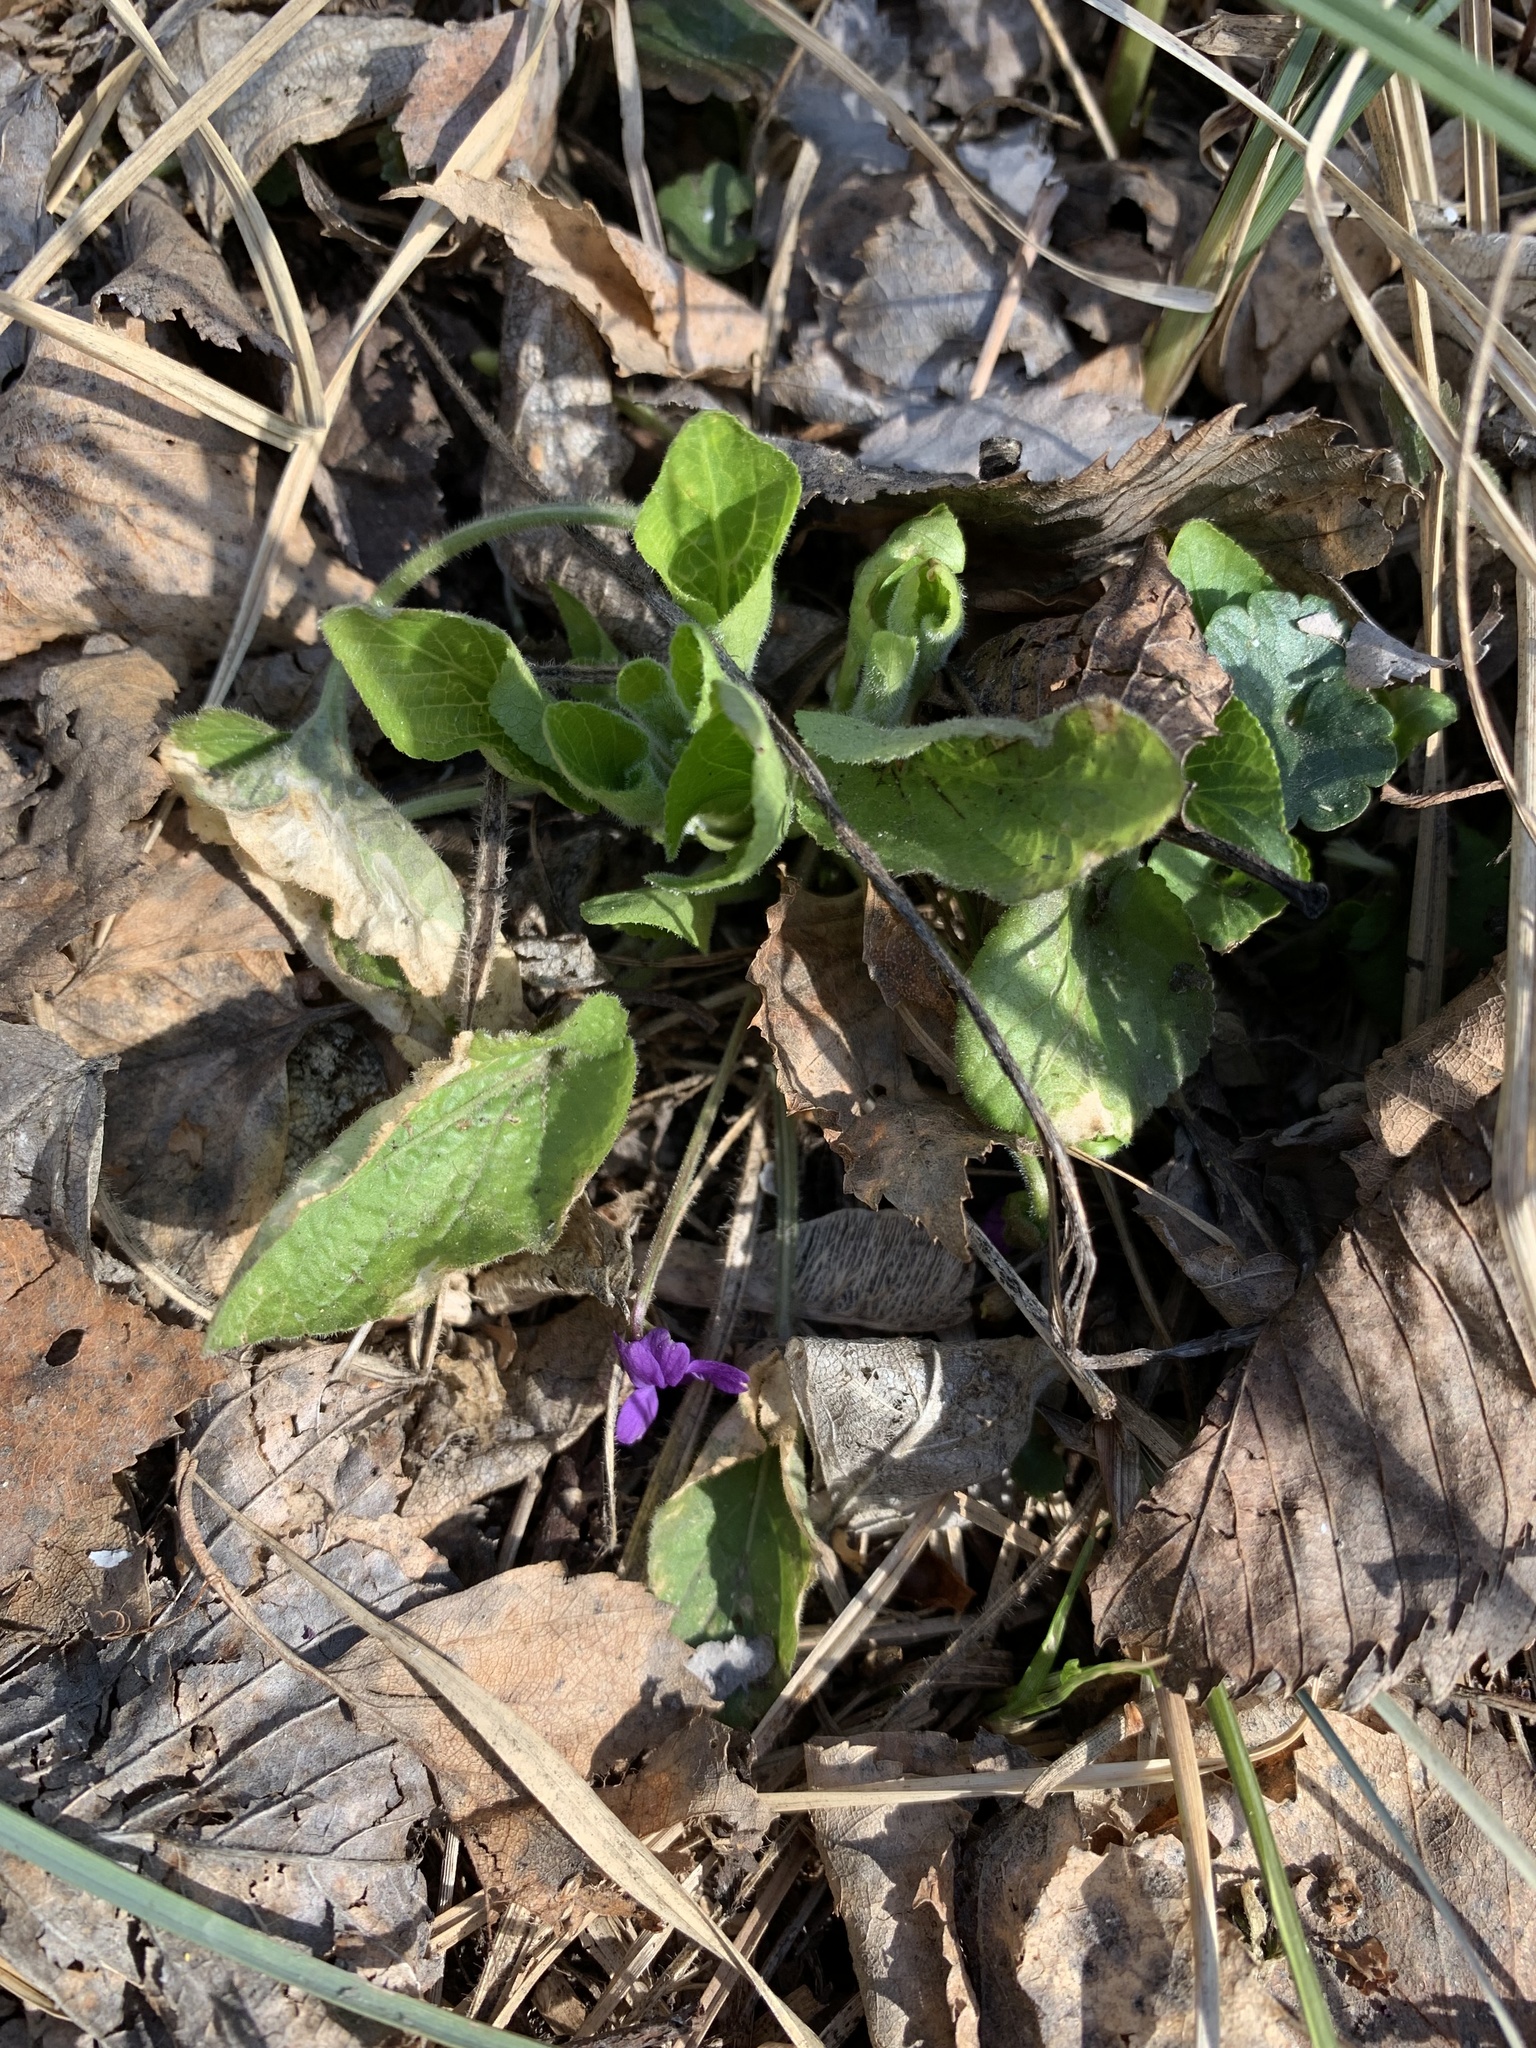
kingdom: Plantae
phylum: Tracheophyta
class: Magnoliopsida
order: Malpighiales
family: Violaceae
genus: Viola
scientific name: Viola hirta
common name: Hairy violet
